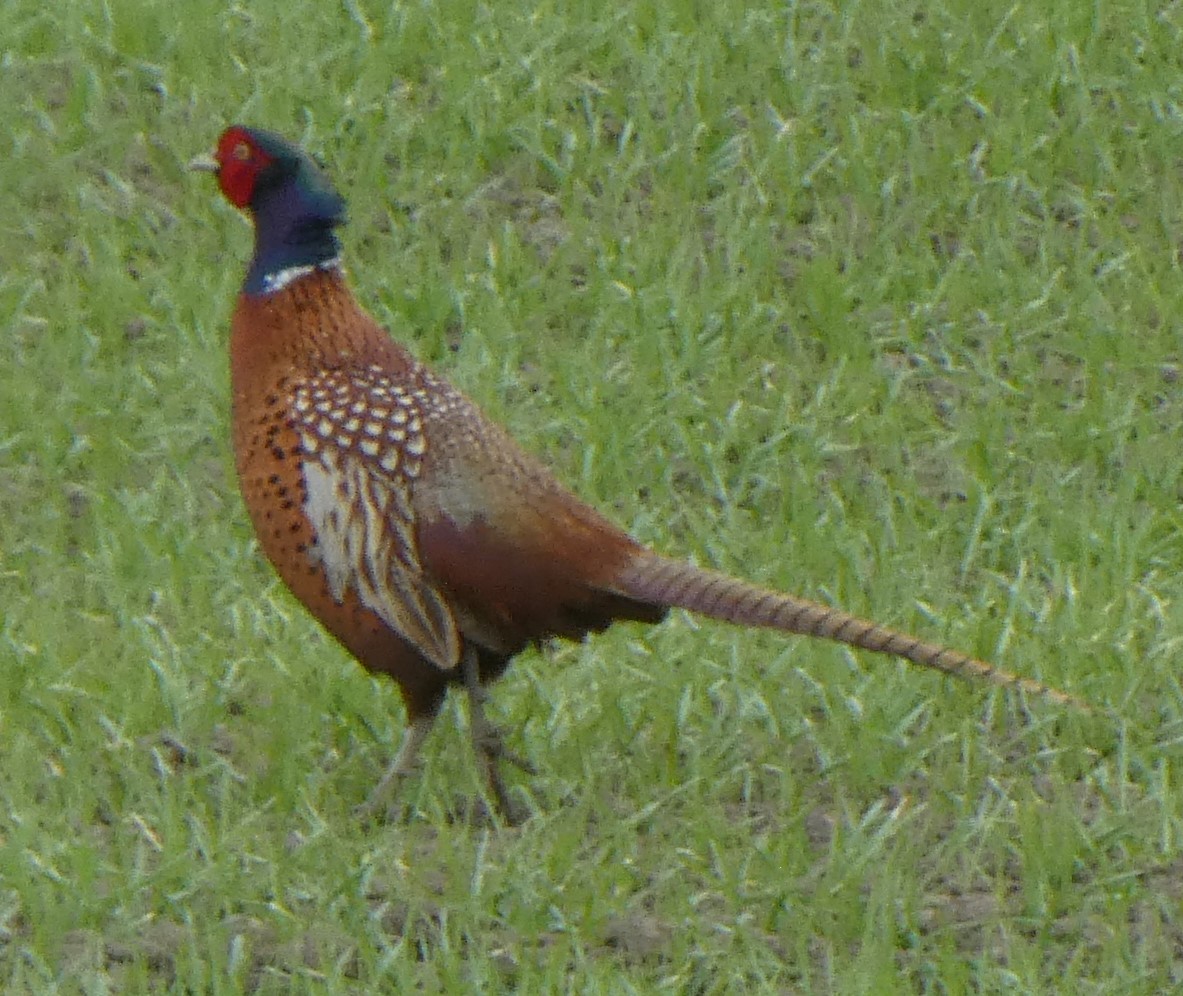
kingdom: Animalia
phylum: Chordata
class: Aves
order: Galliformes
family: Phasianidae
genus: Phasianus
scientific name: Phasianus colchicus
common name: Common pheasant
